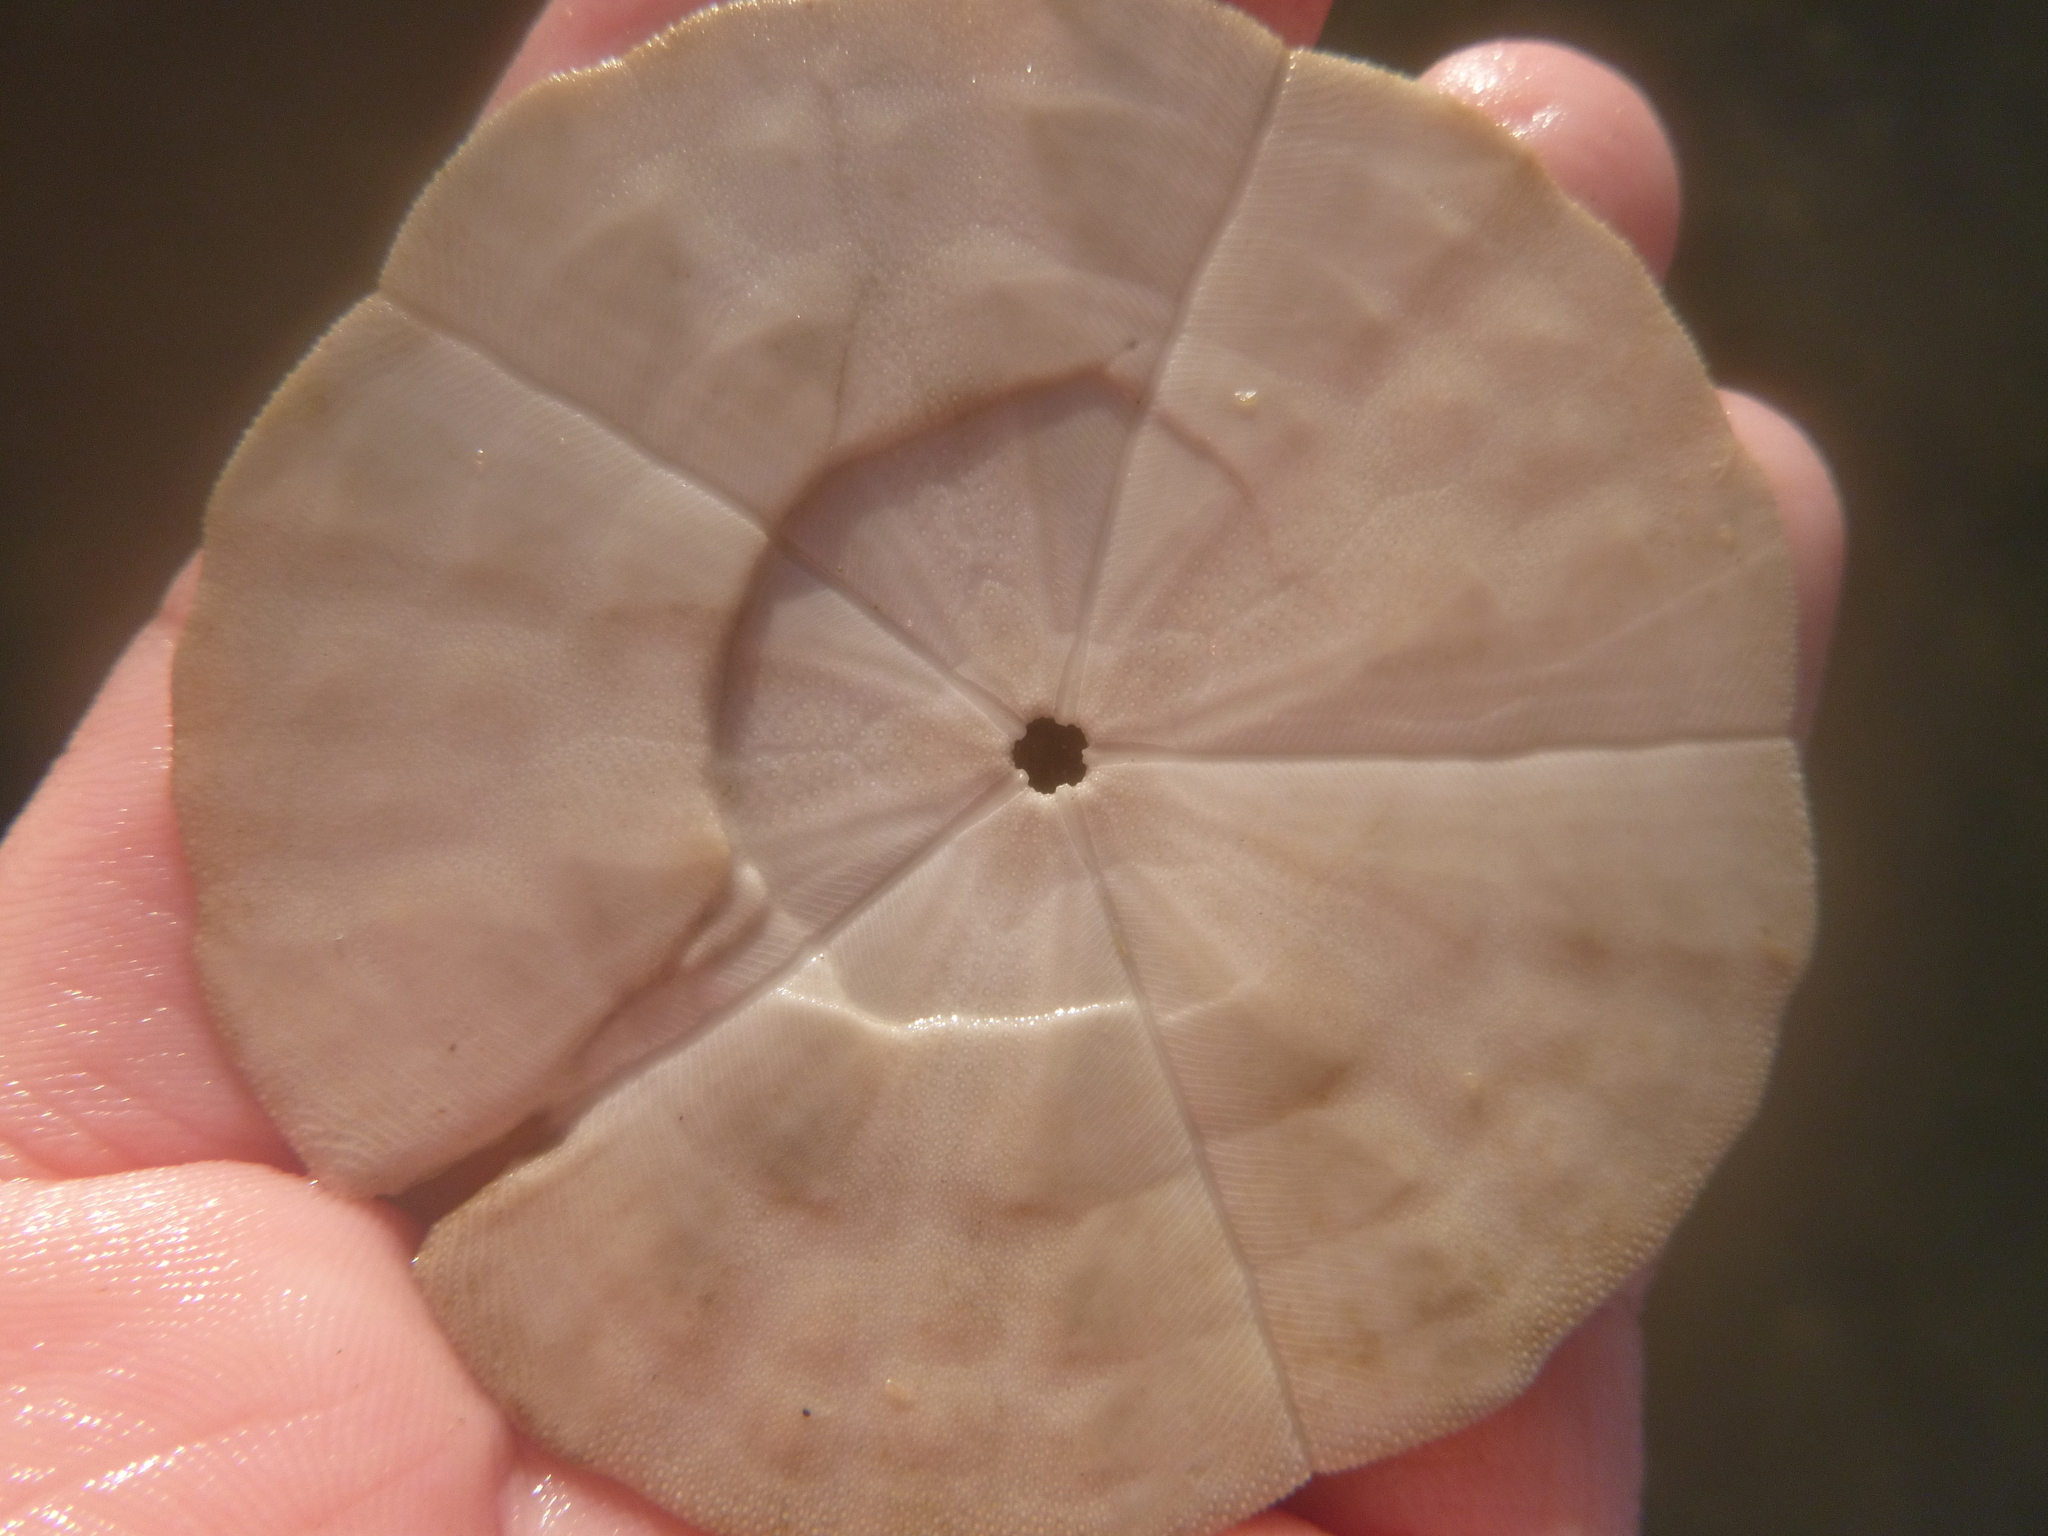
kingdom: Animalia
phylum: Echinodermata
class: Echinoidea
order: Clypeasteroida
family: Clypeasteridae
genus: Fellaster
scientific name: Fellaster zelandiae
